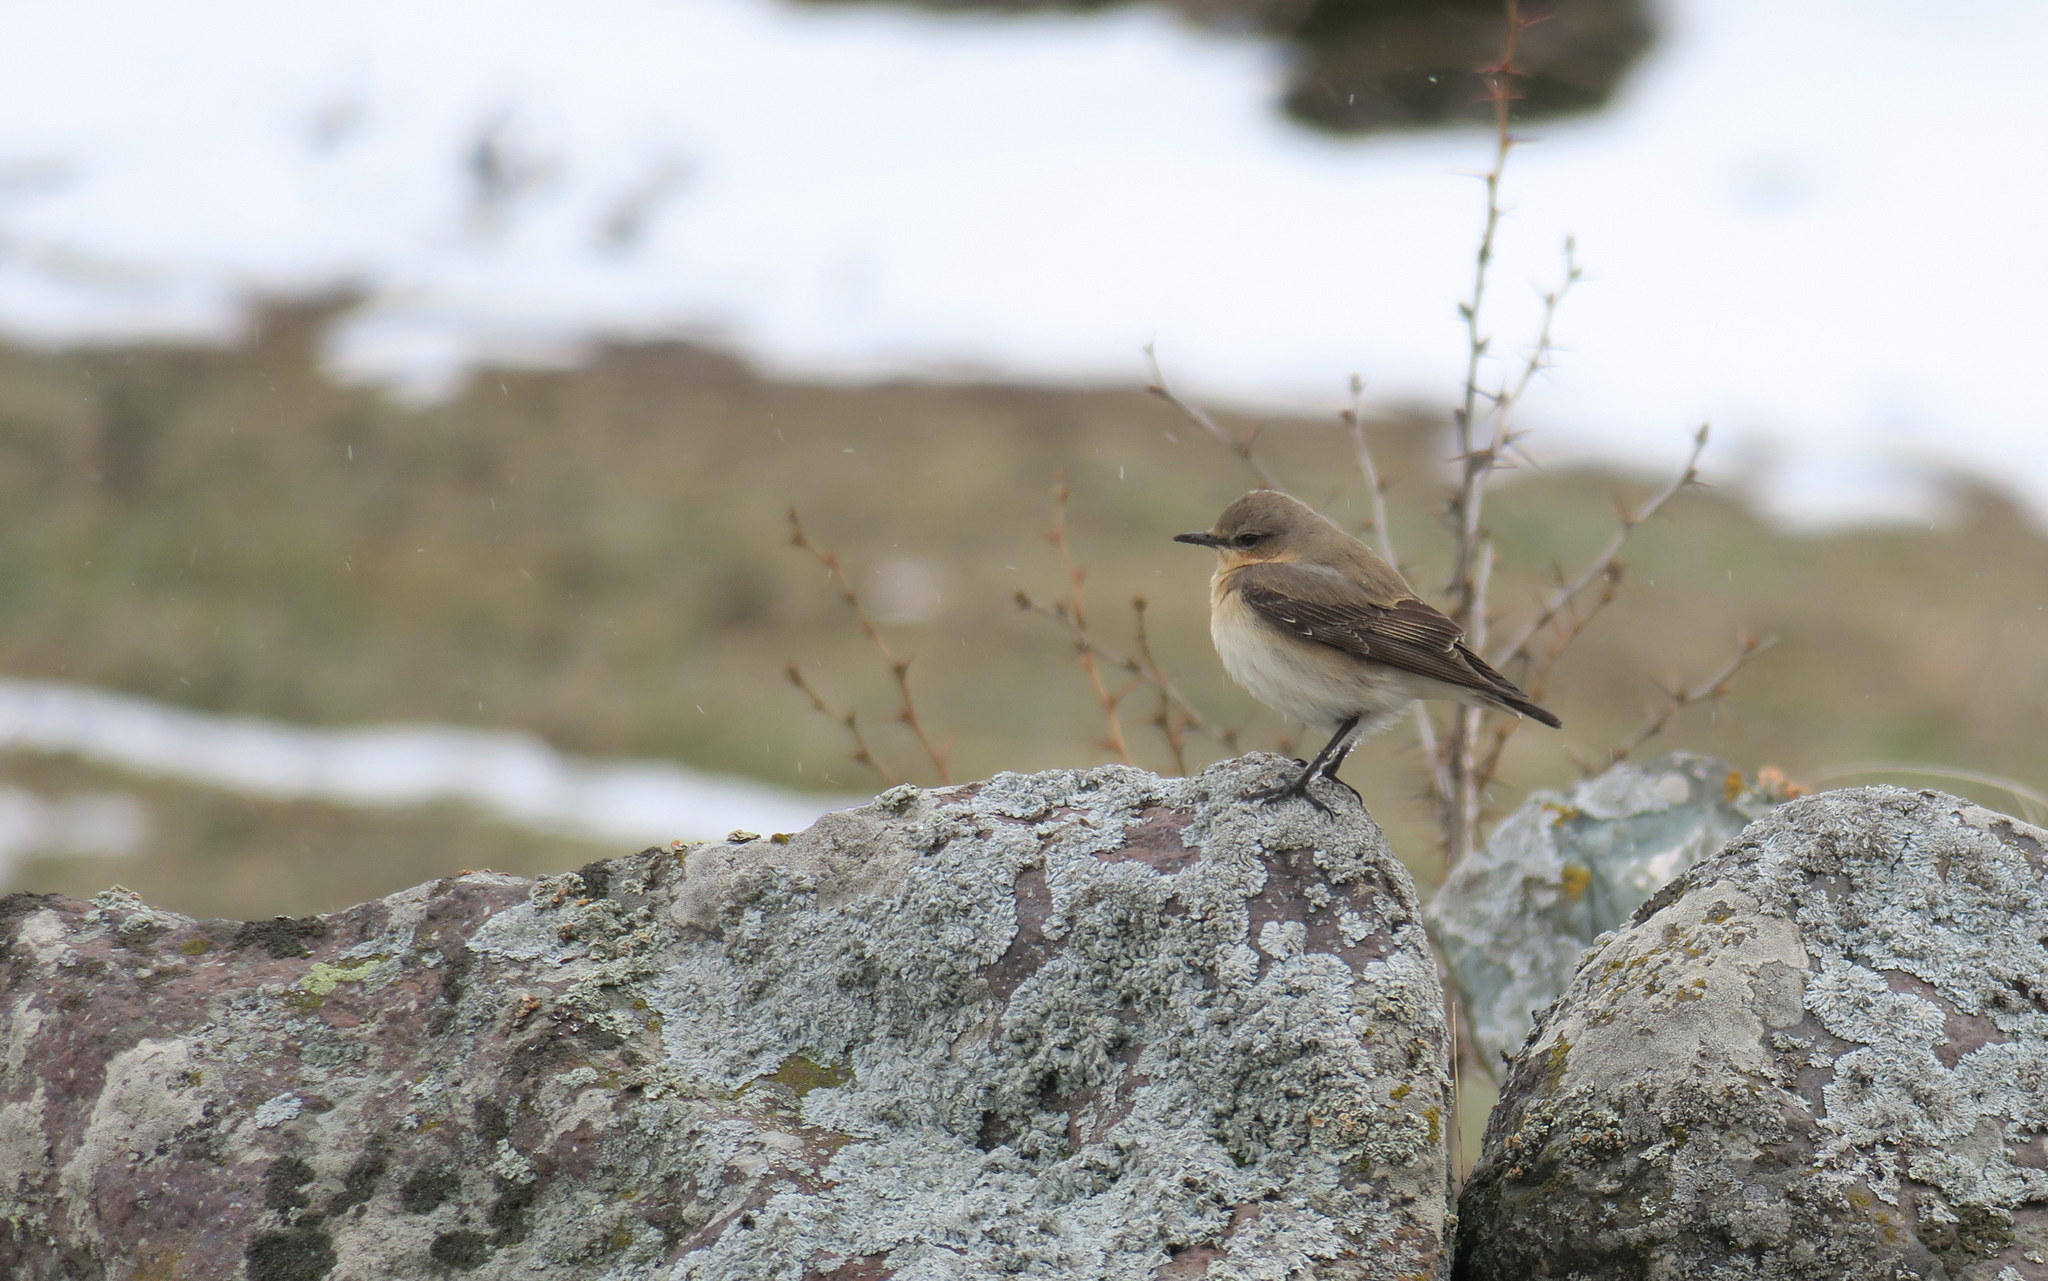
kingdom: Animalia
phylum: Chordata
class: Aves
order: Passeriformes
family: Muscicapidae
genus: Oenanthe
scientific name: Oenanthe oenanthe
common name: Northern wheatear
